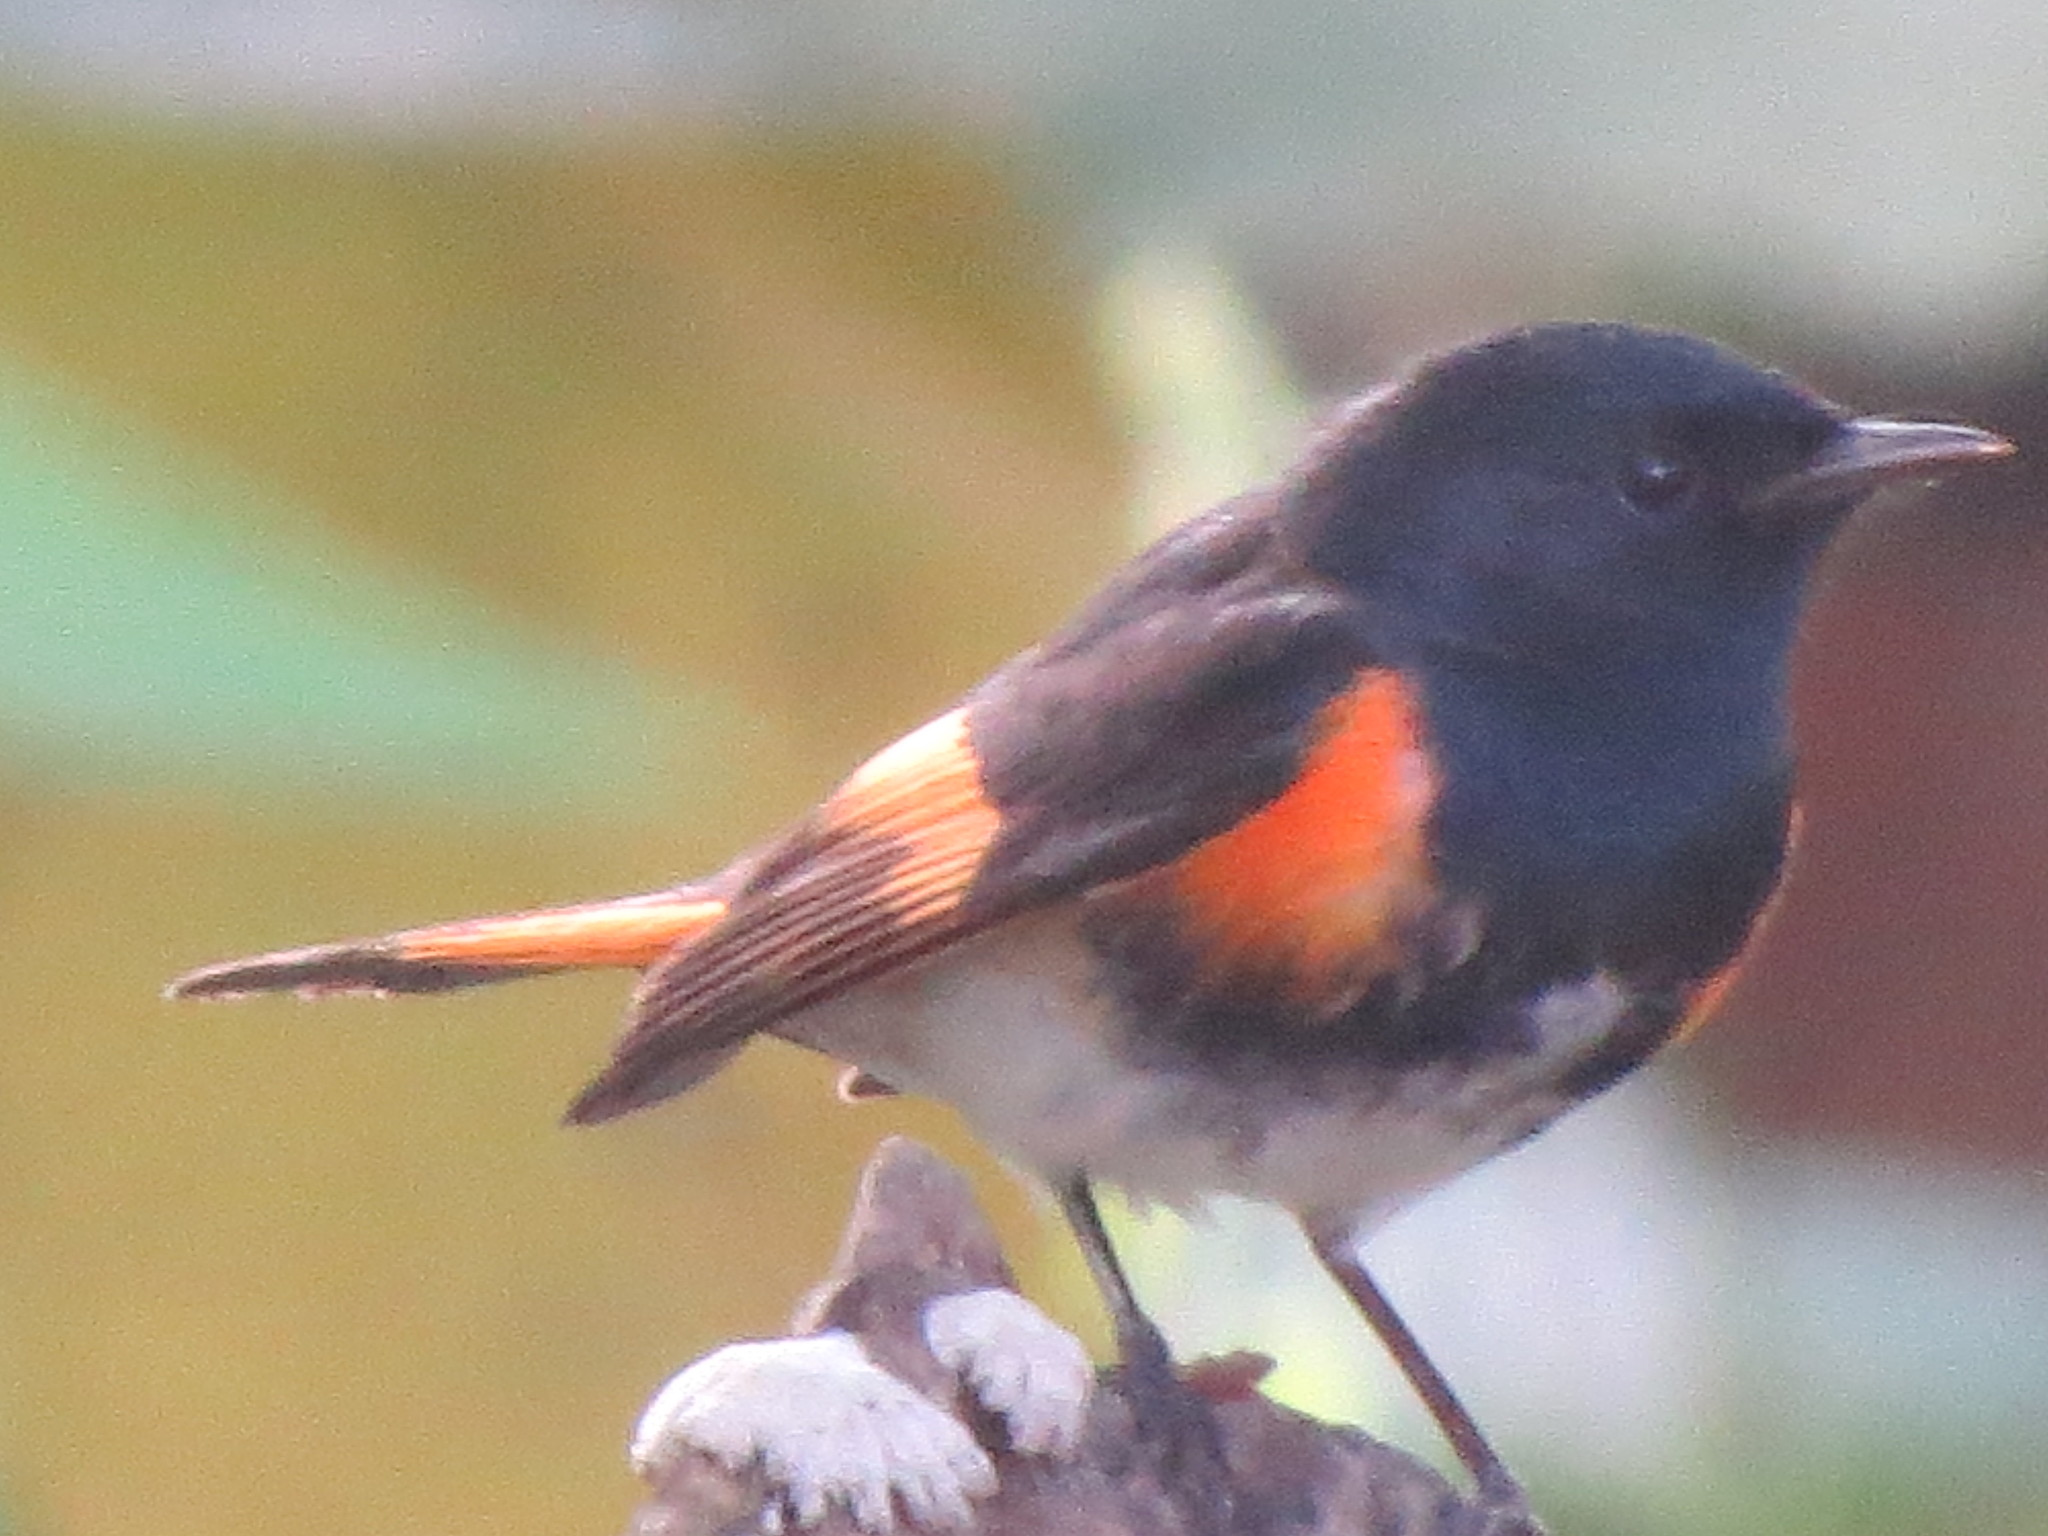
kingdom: Animalia
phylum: Chordata
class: Aves
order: Passeriformes
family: Parulidae
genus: Setophaga
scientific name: Setophaga ruticilla
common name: American redstart
